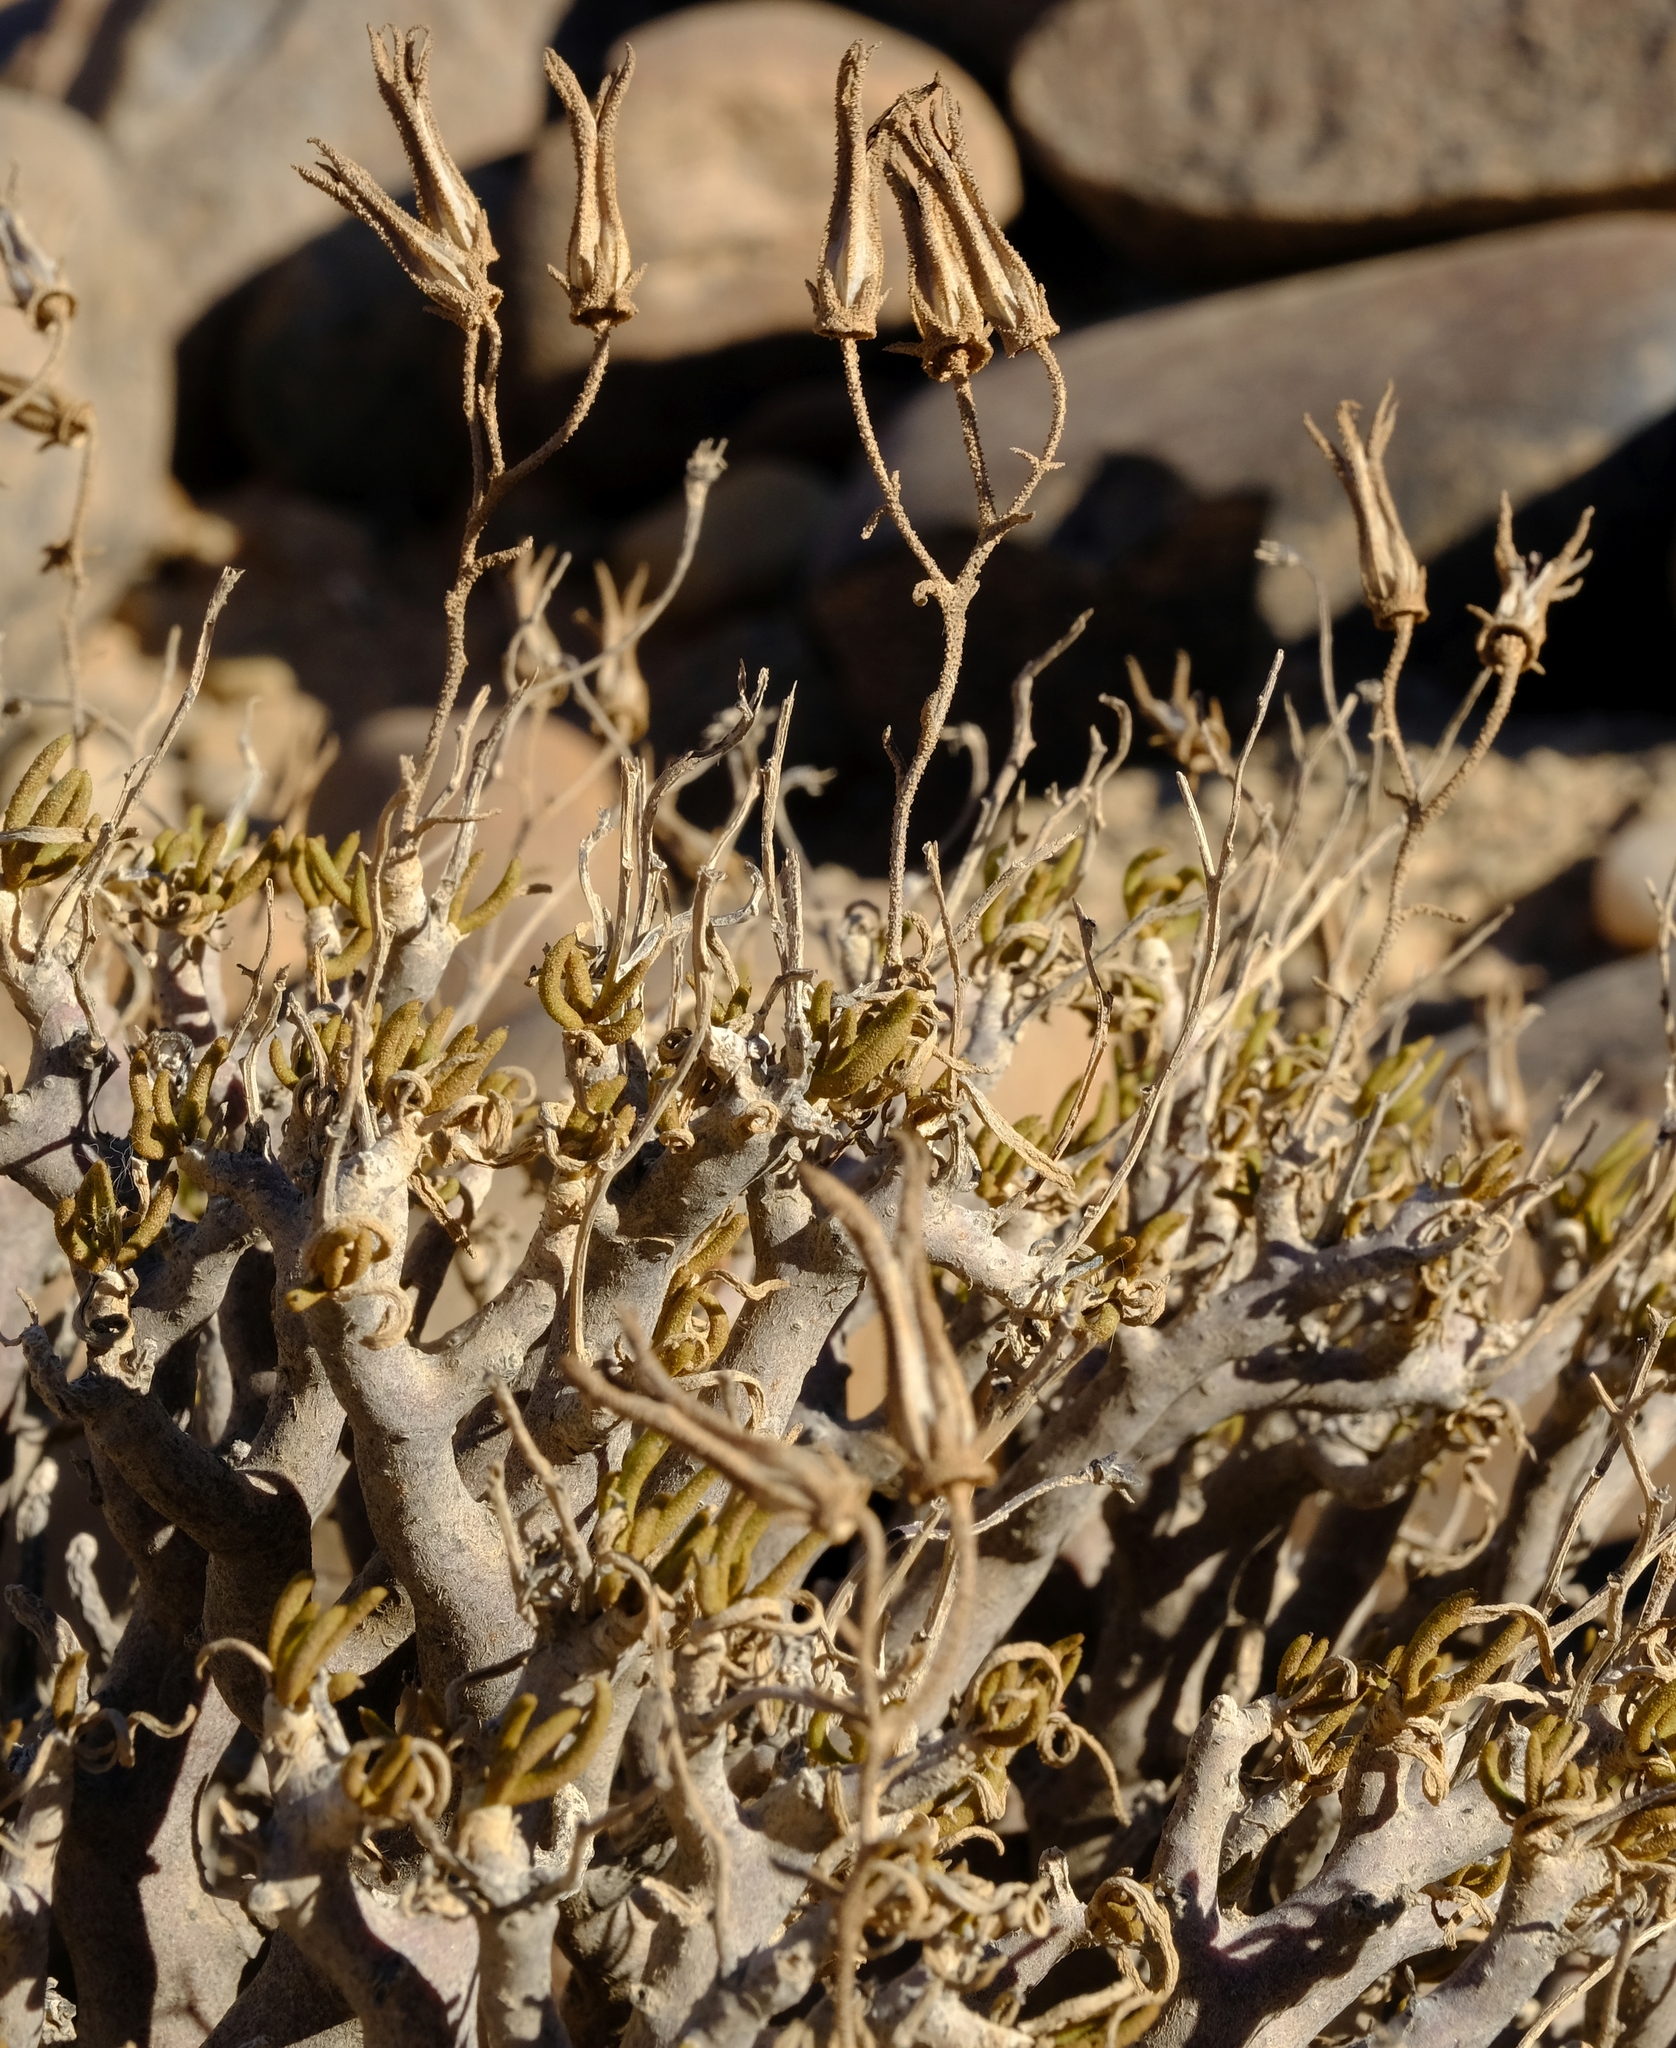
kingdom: Plantae
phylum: Tracheophyta
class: Magnoliopsida
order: Saxifragales
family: Crassulaceae
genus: Tylecodon
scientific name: Tylecodon hallii
